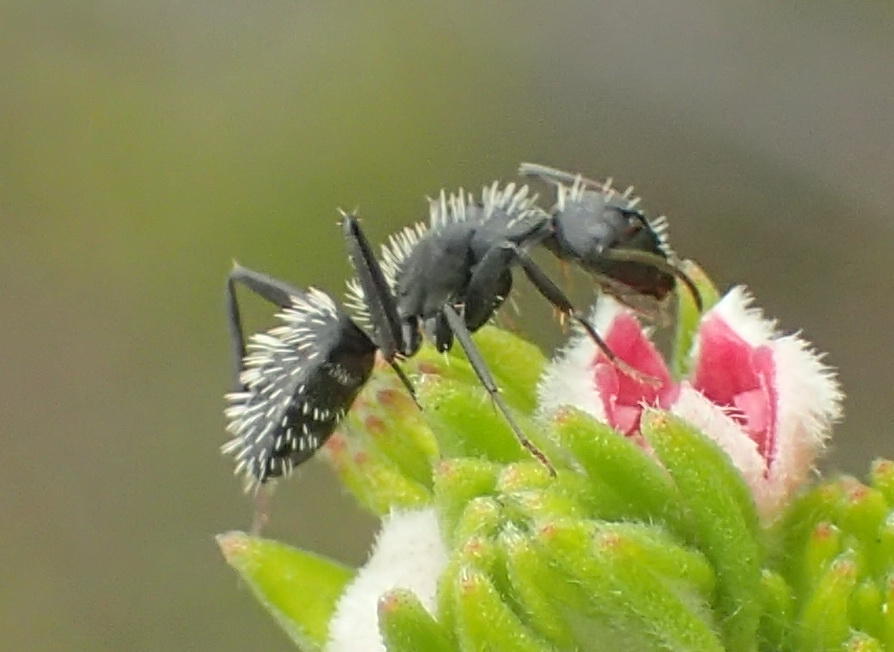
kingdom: Animalia
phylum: Arthropoda
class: Insecta
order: Hymenoptera
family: Formicidae
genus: Camponotus
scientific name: Camponotus niveosetosus
